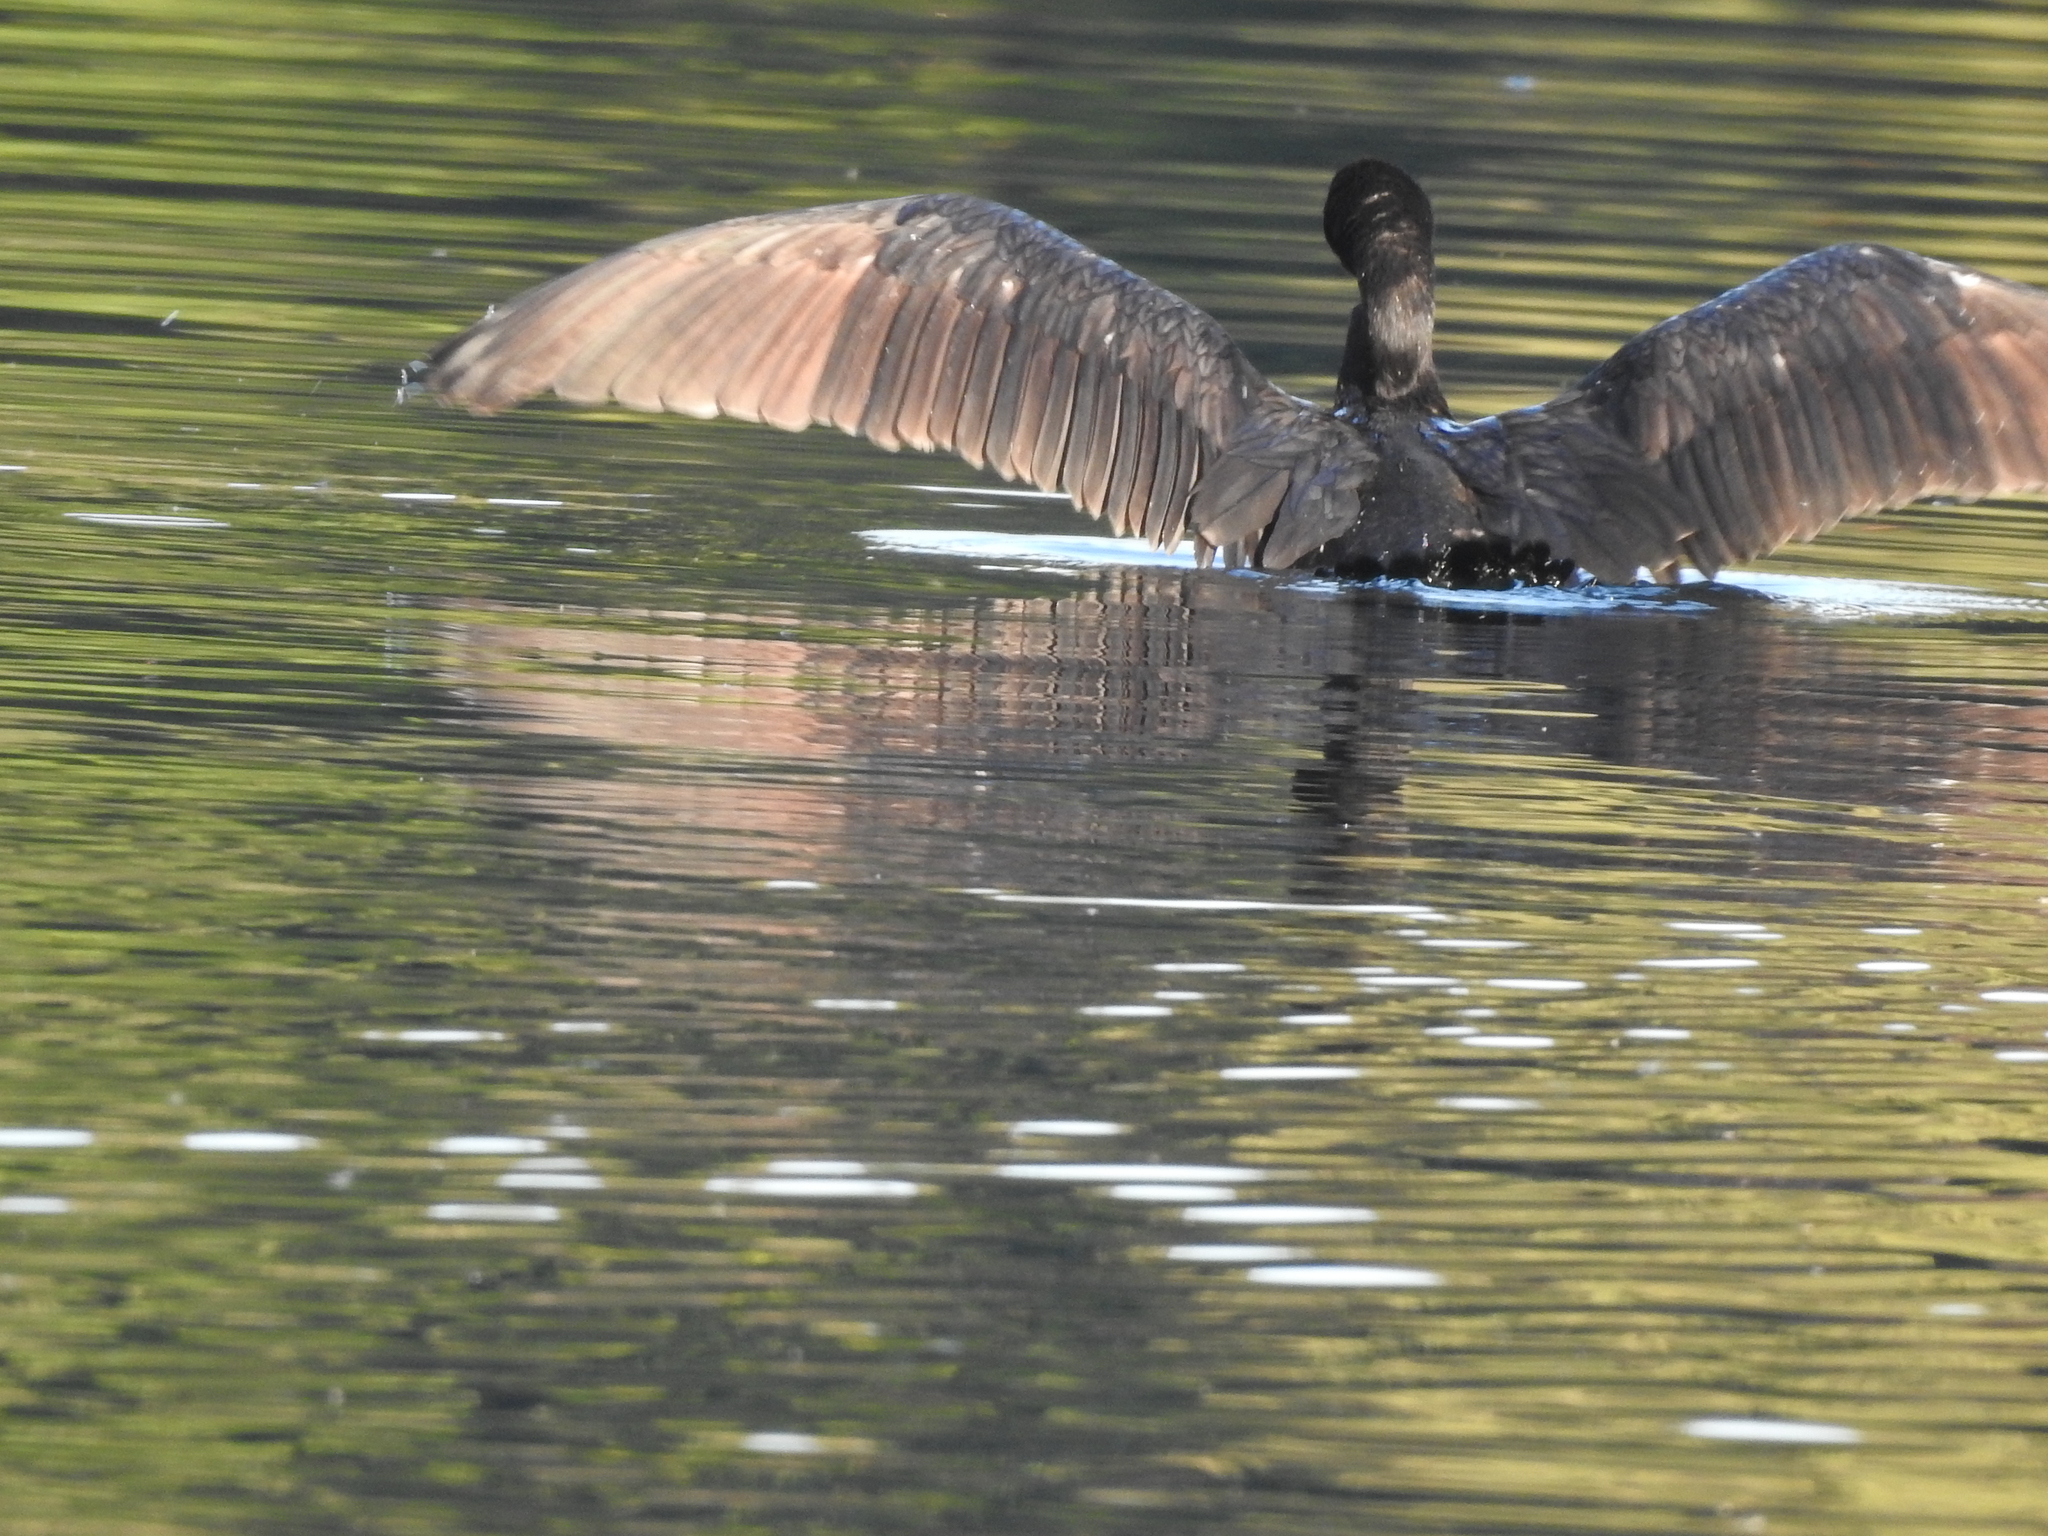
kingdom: Animalia
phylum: Chordata
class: Aves
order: Suliformes
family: Phalacrocoracidae
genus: Phalacrocorax
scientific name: Phalacrocorax brasilianus
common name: Neotropic cormorant
